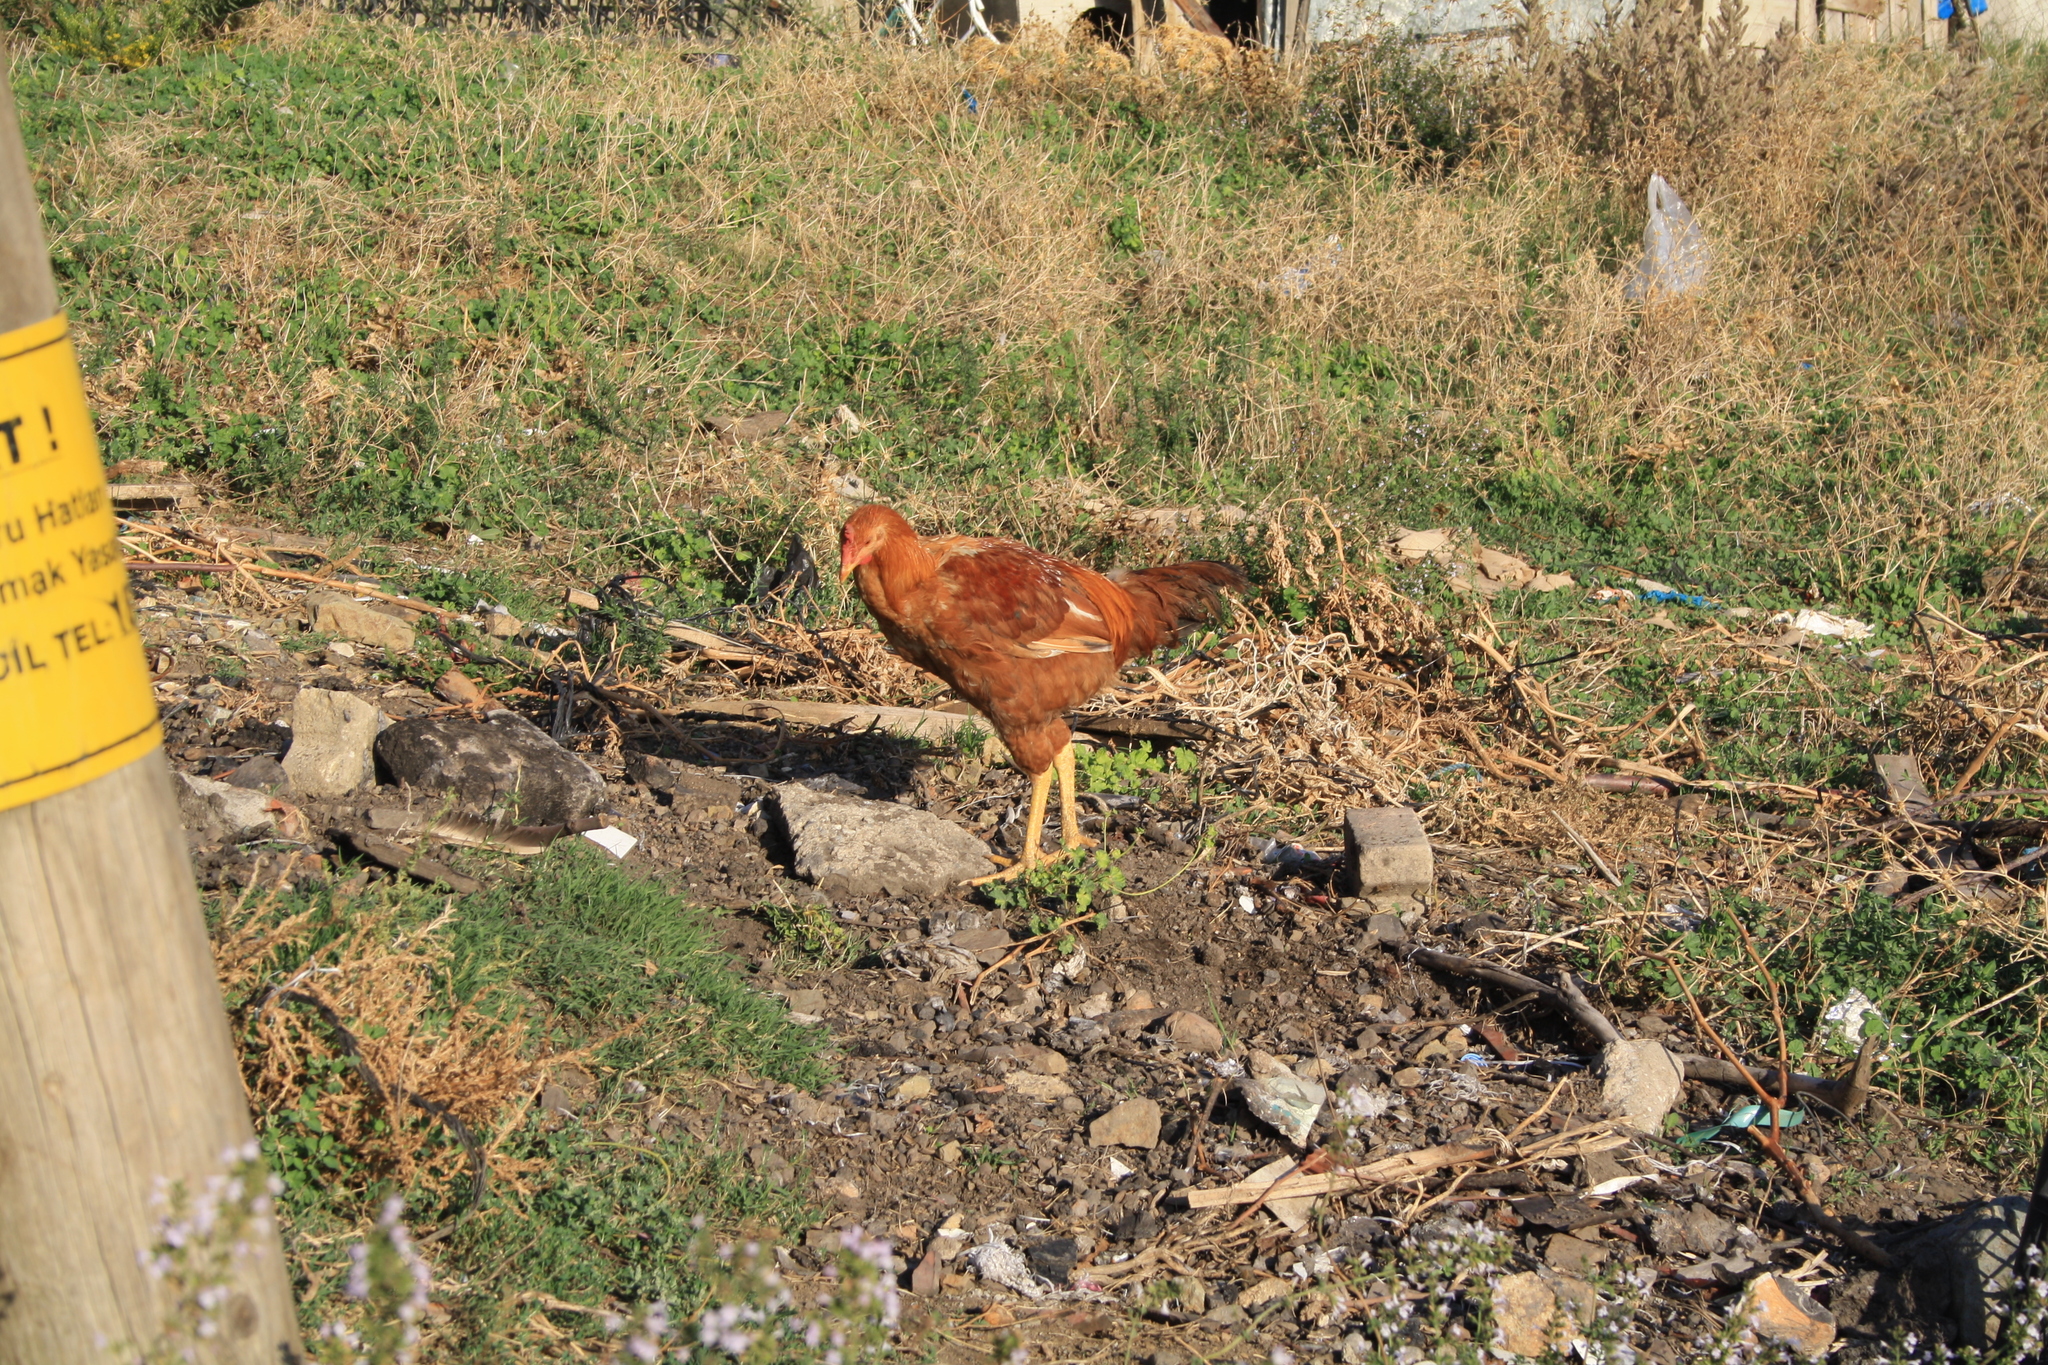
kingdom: Animalia
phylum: Chordata
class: Aves
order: Galliformes
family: Phasianidae
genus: Gallus
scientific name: Gallus gallus
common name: Red junglefowl
